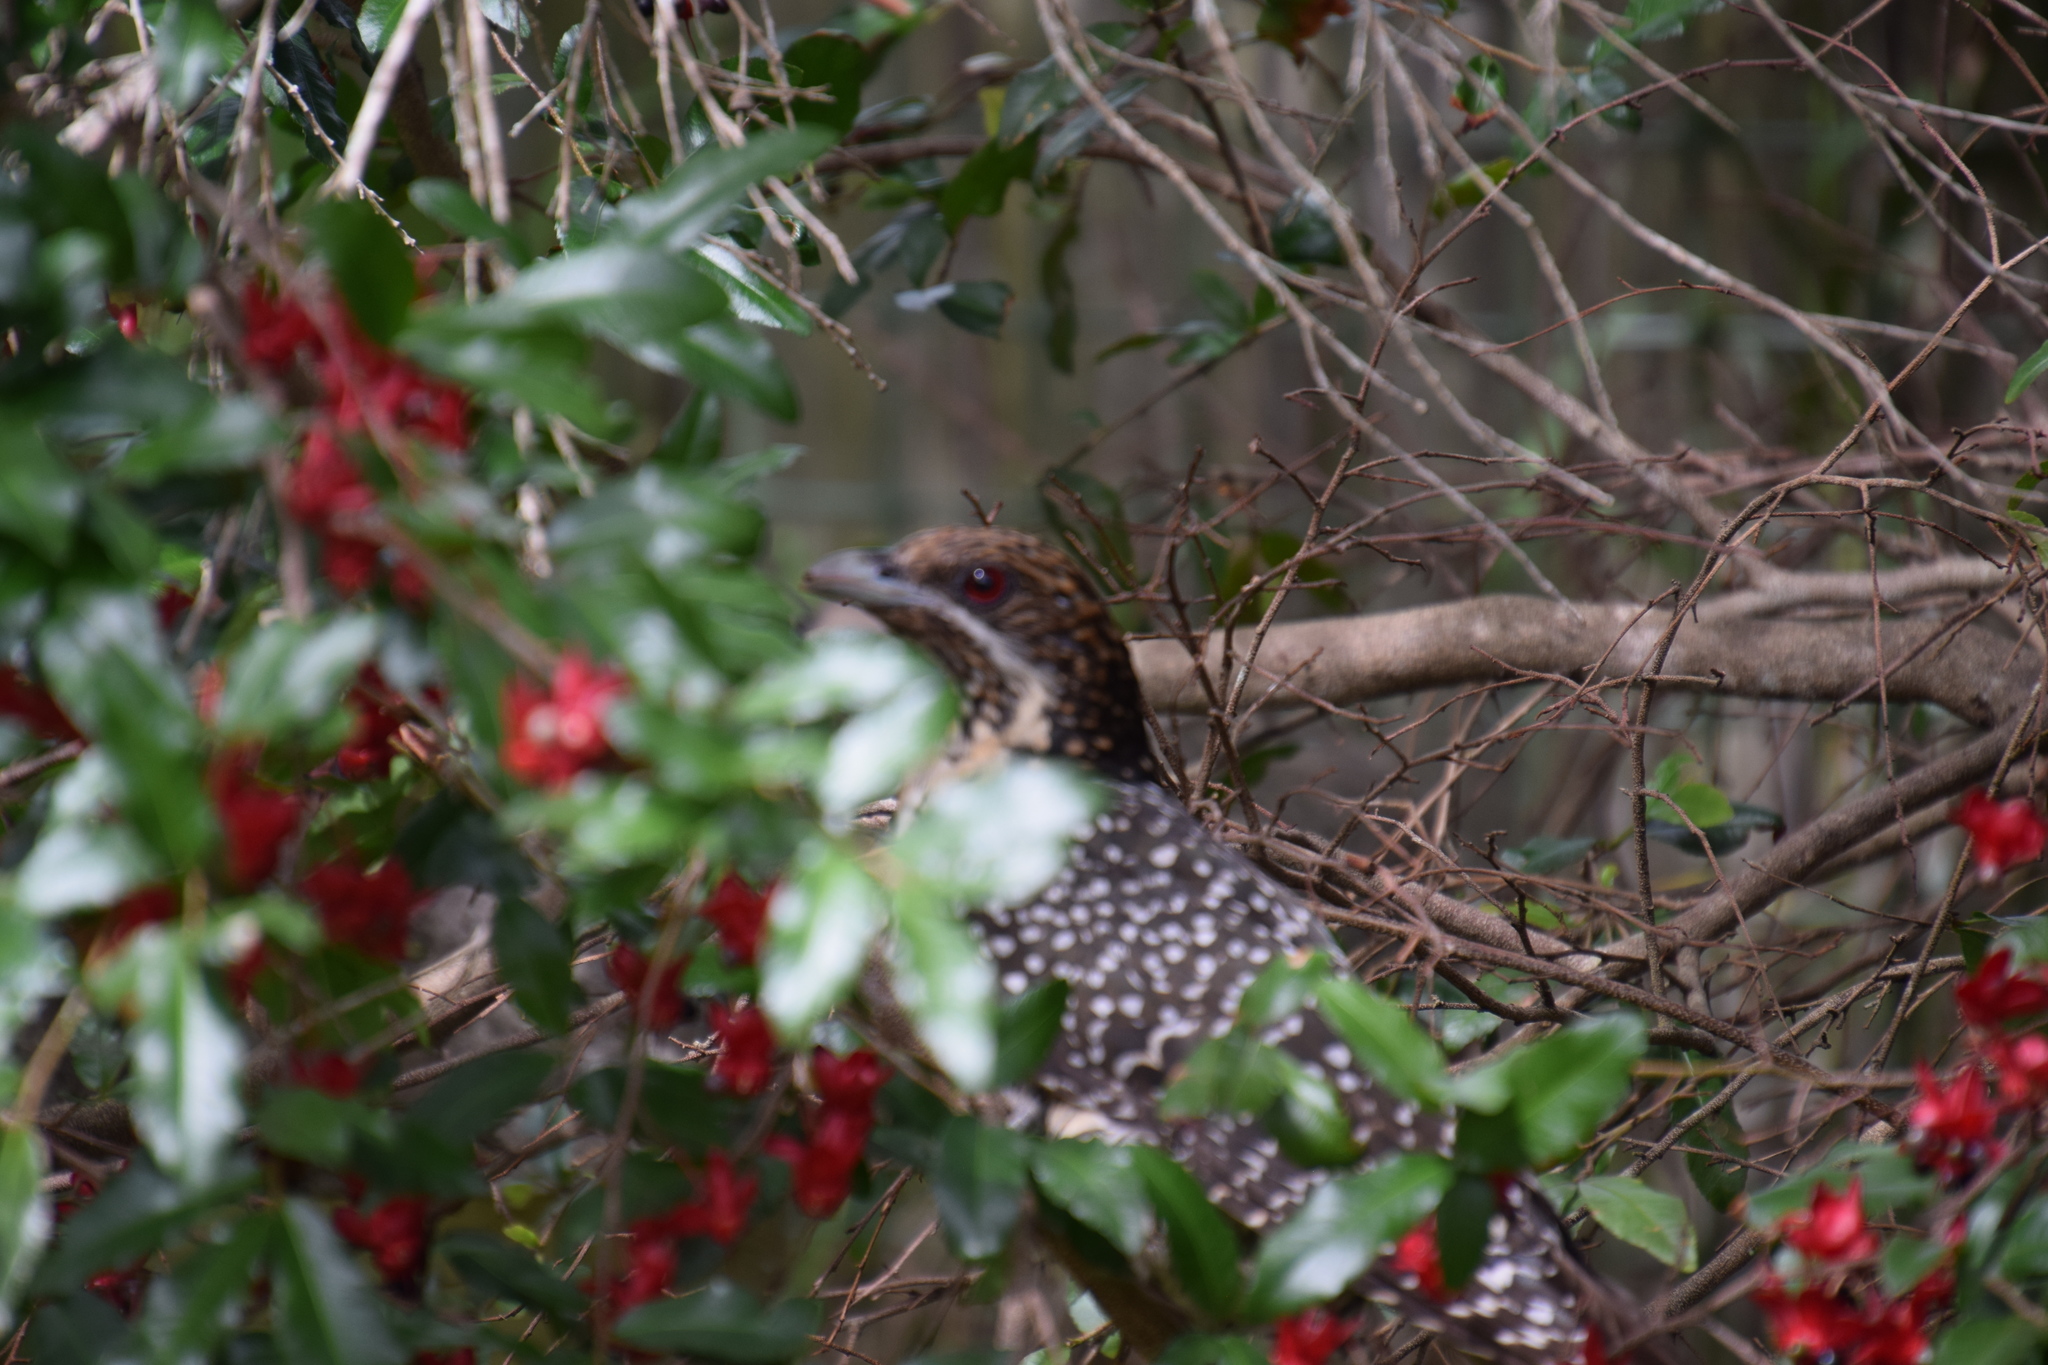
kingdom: Animalia
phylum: Chordata
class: Aves
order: Cuculiformes
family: Cuculidae
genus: Eudynamys
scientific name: Eudynamys orientalis
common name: Pacific koel
